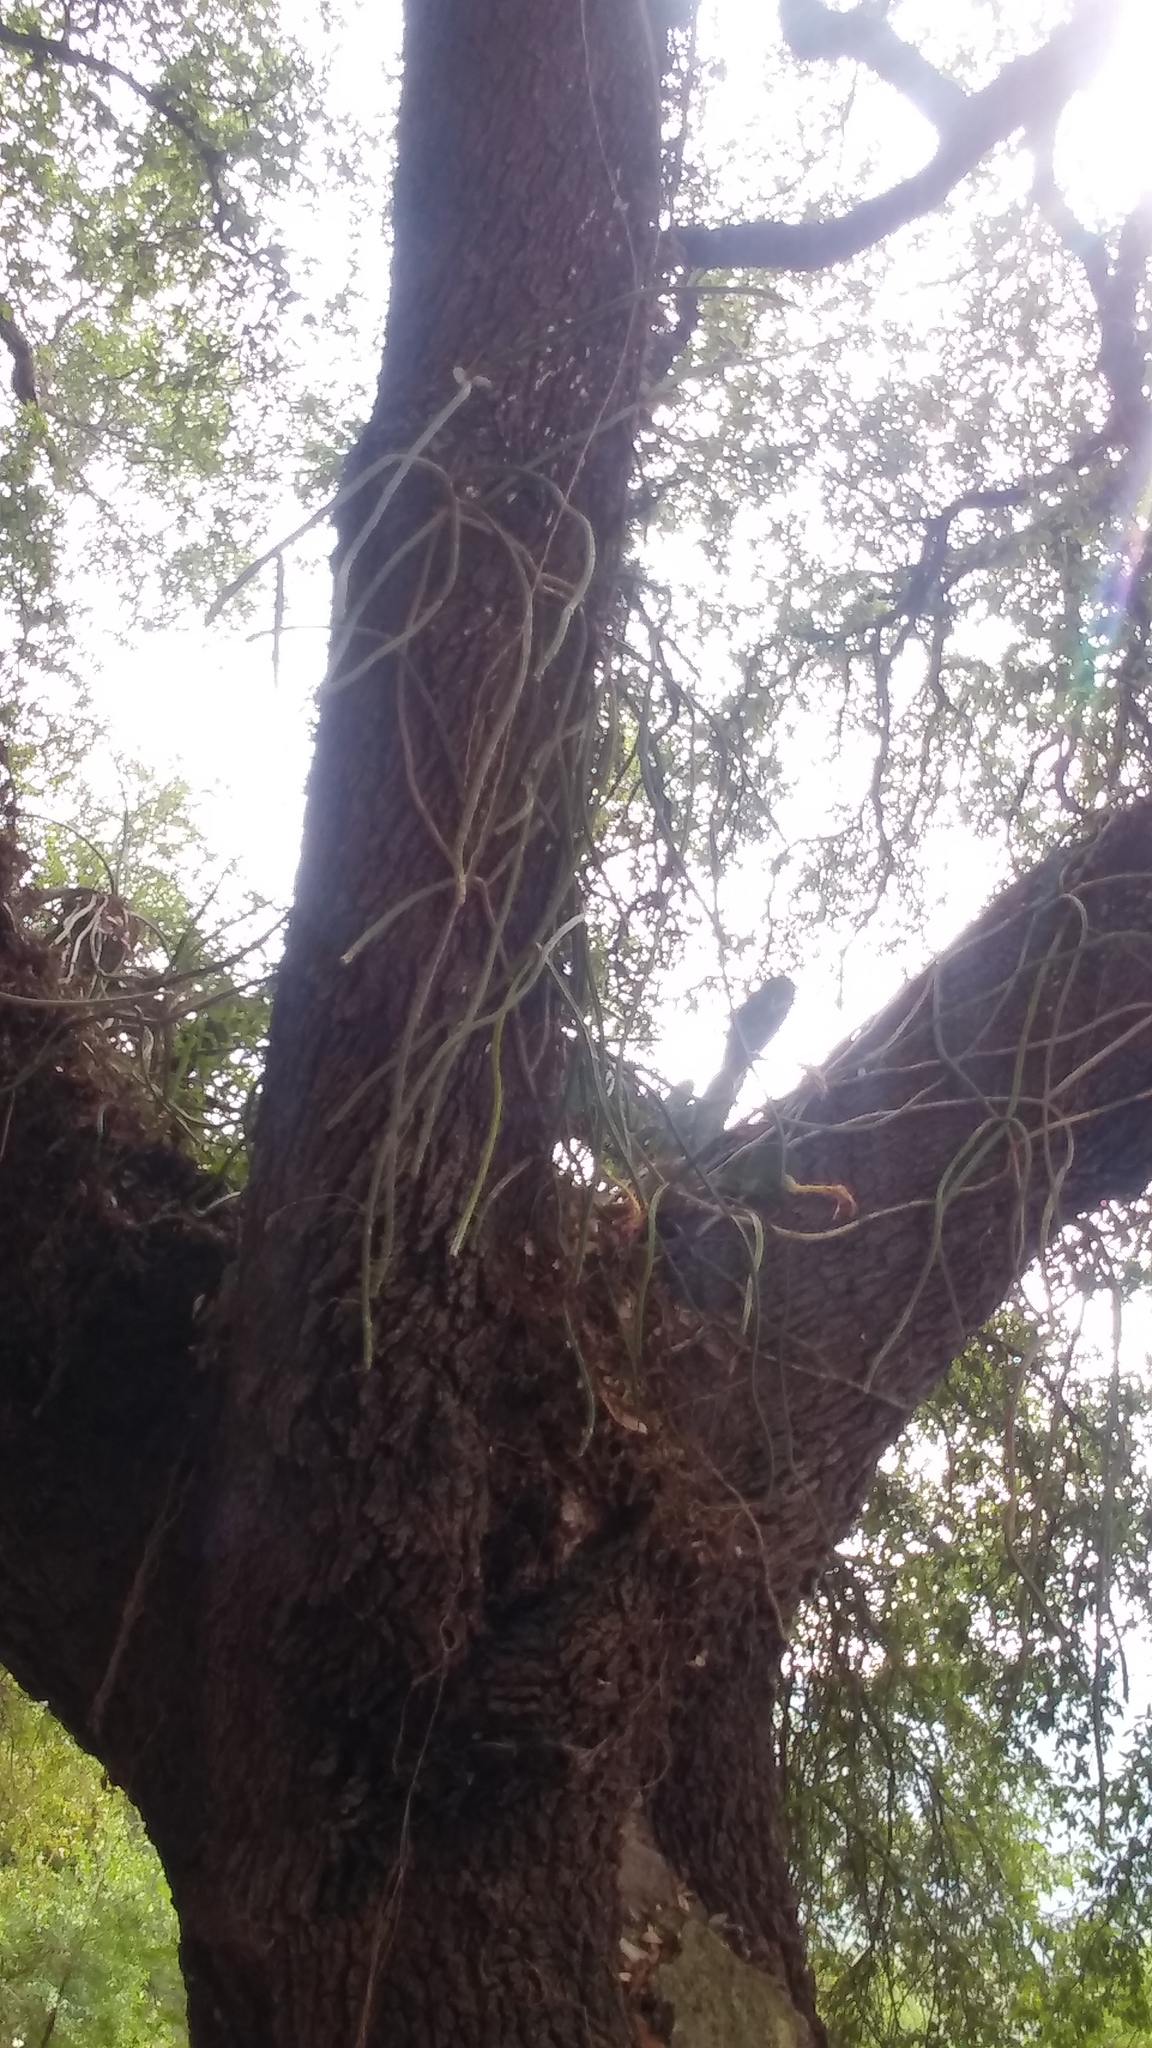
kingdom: Plantae
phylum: Tracheophyta
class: Magnoliopsida
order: Caryophyllales
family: Cactaceae
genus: Selenicereus
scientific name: Selenicereus spinulosus
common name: Nightblooming cereus
